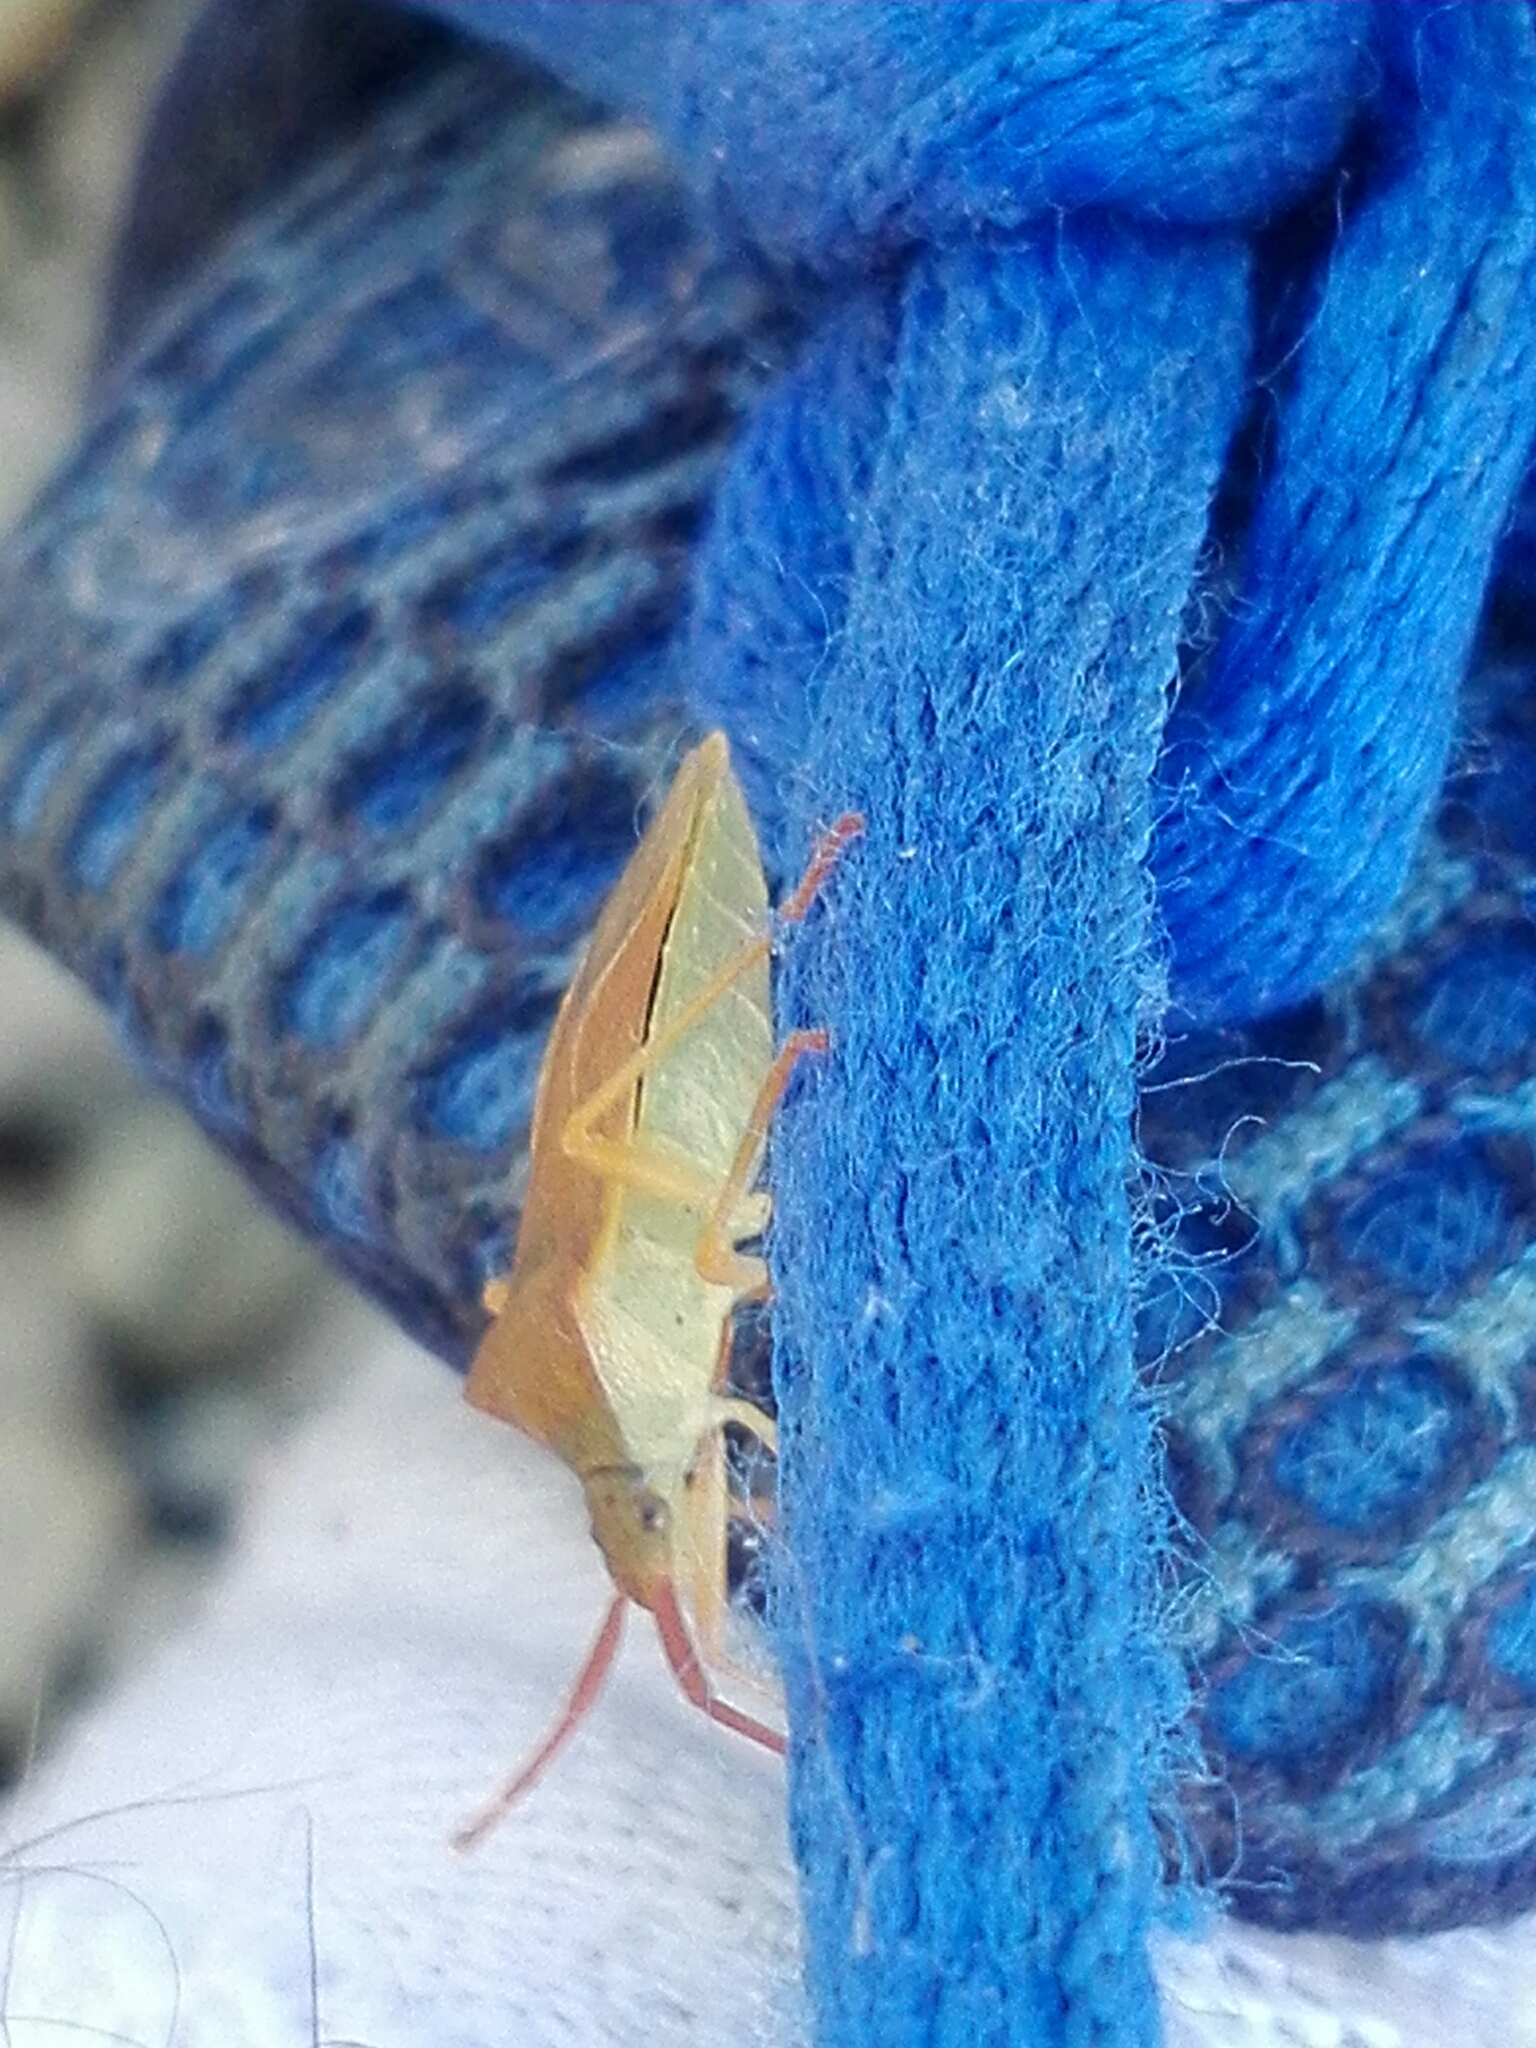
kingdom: Animalia
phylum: Arthropoda
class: Insecta
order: Hemiptera
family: Coreidae
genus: Gonocerus
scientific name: Gonocerus acuteangulatus
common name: Box bug
